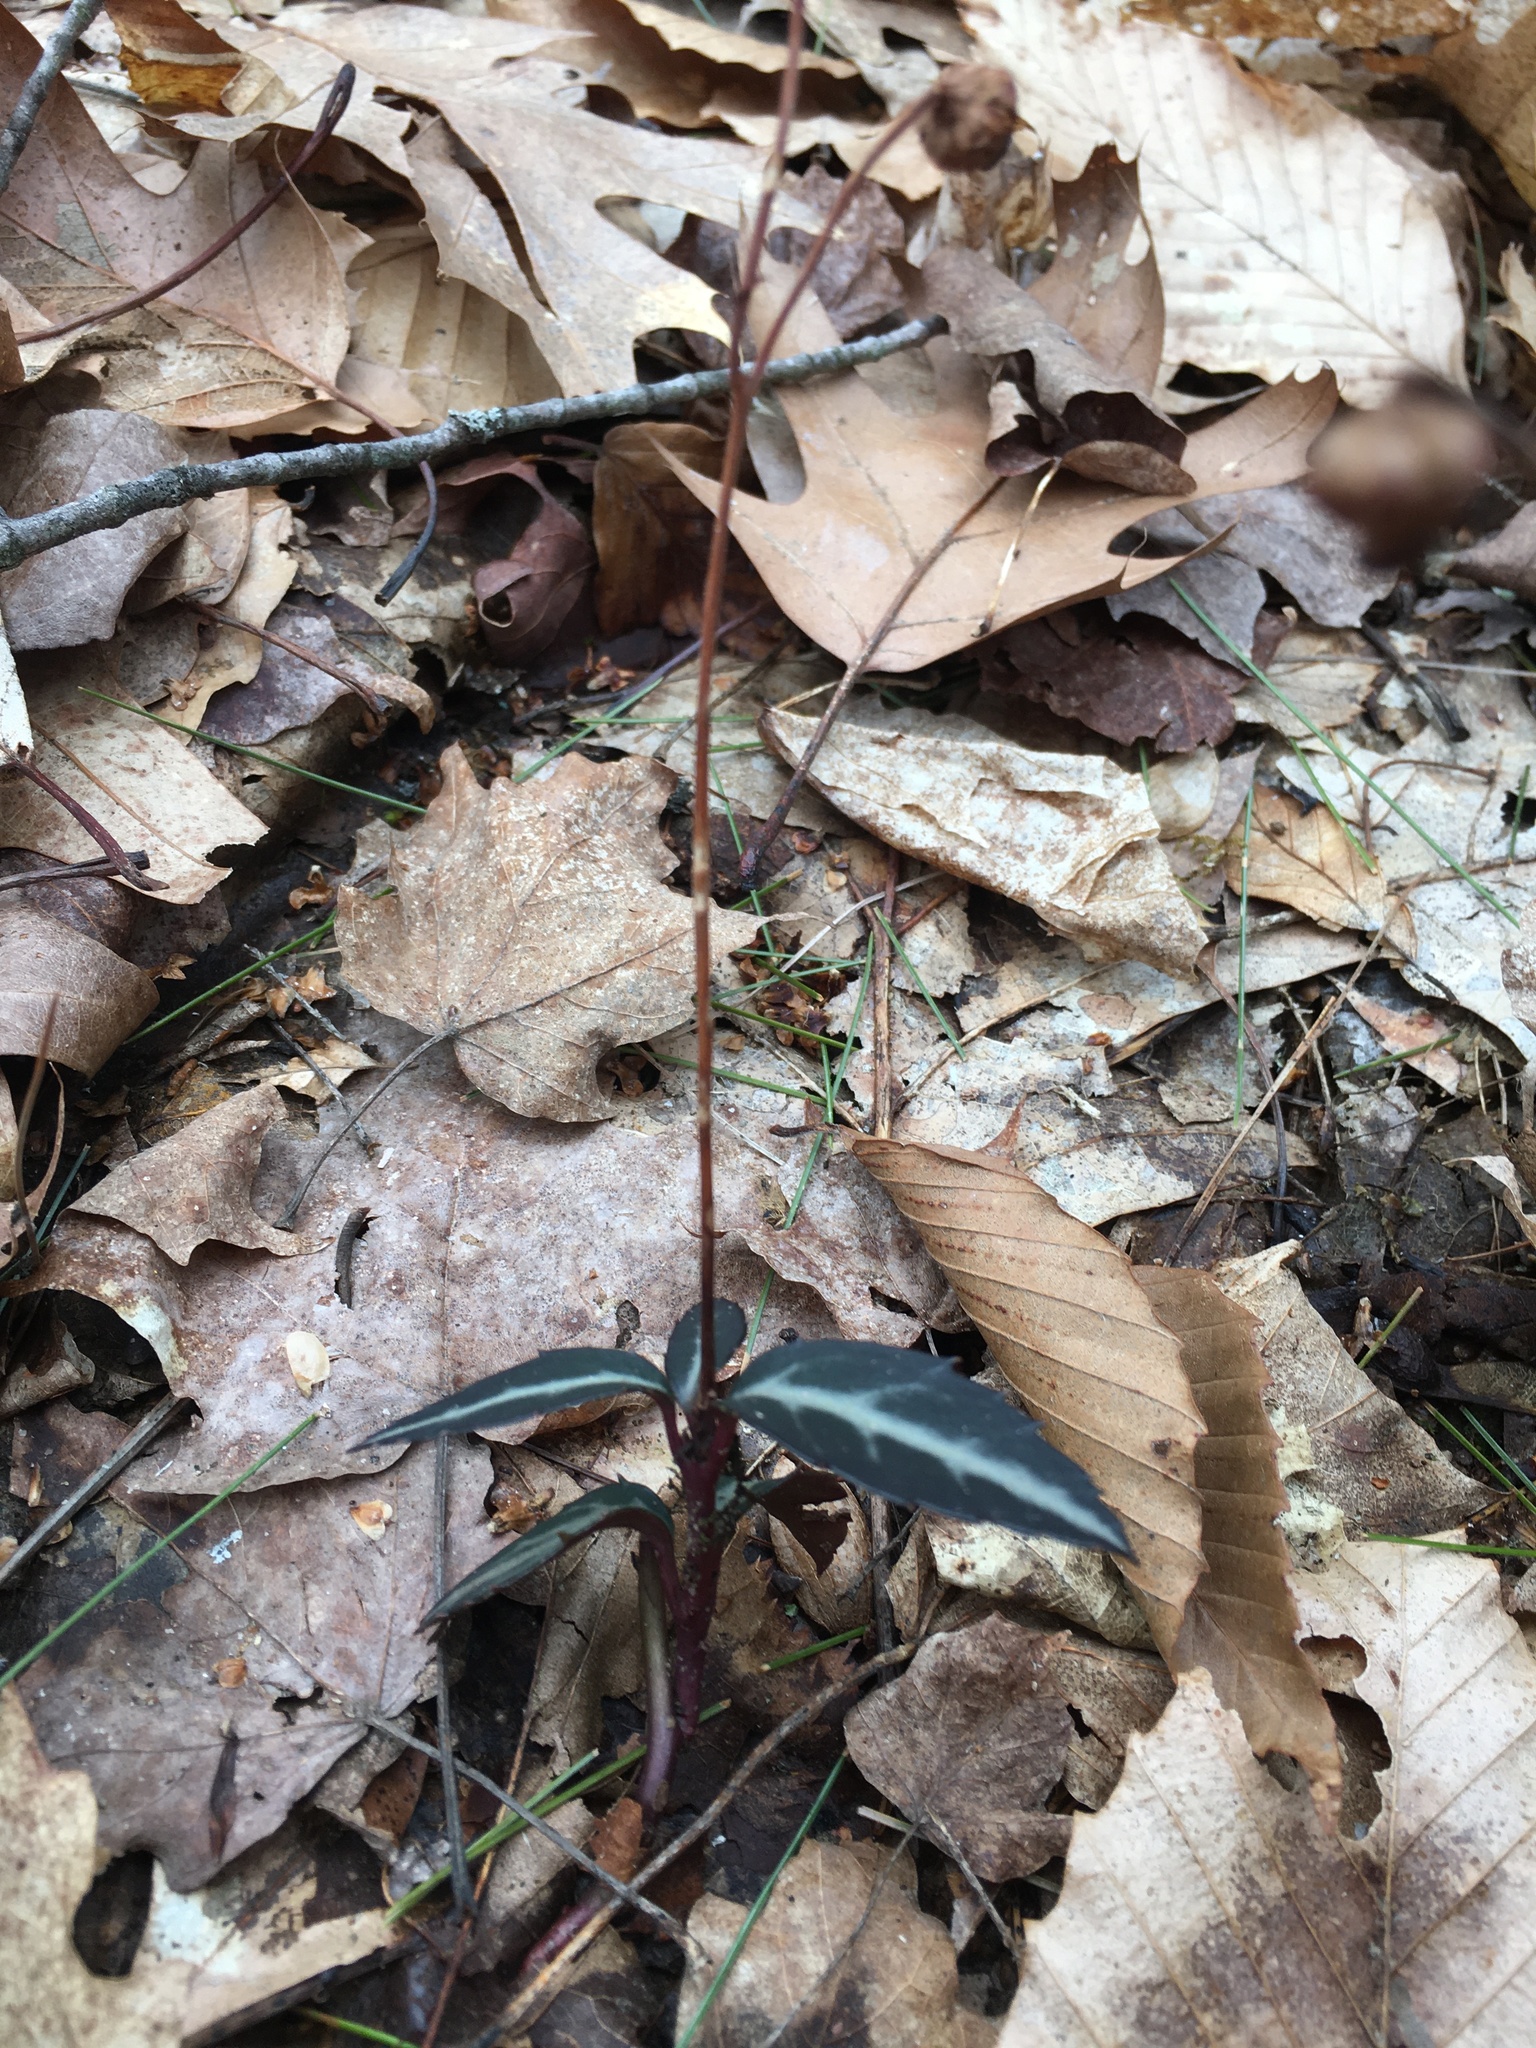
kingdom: Plantae
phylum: Tracheophyta
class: Magnoliopsida
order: Ericales
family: Ericaceae
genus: Chimaphila
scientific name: Chimaphila maculata
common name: Spotted pipsissewa
